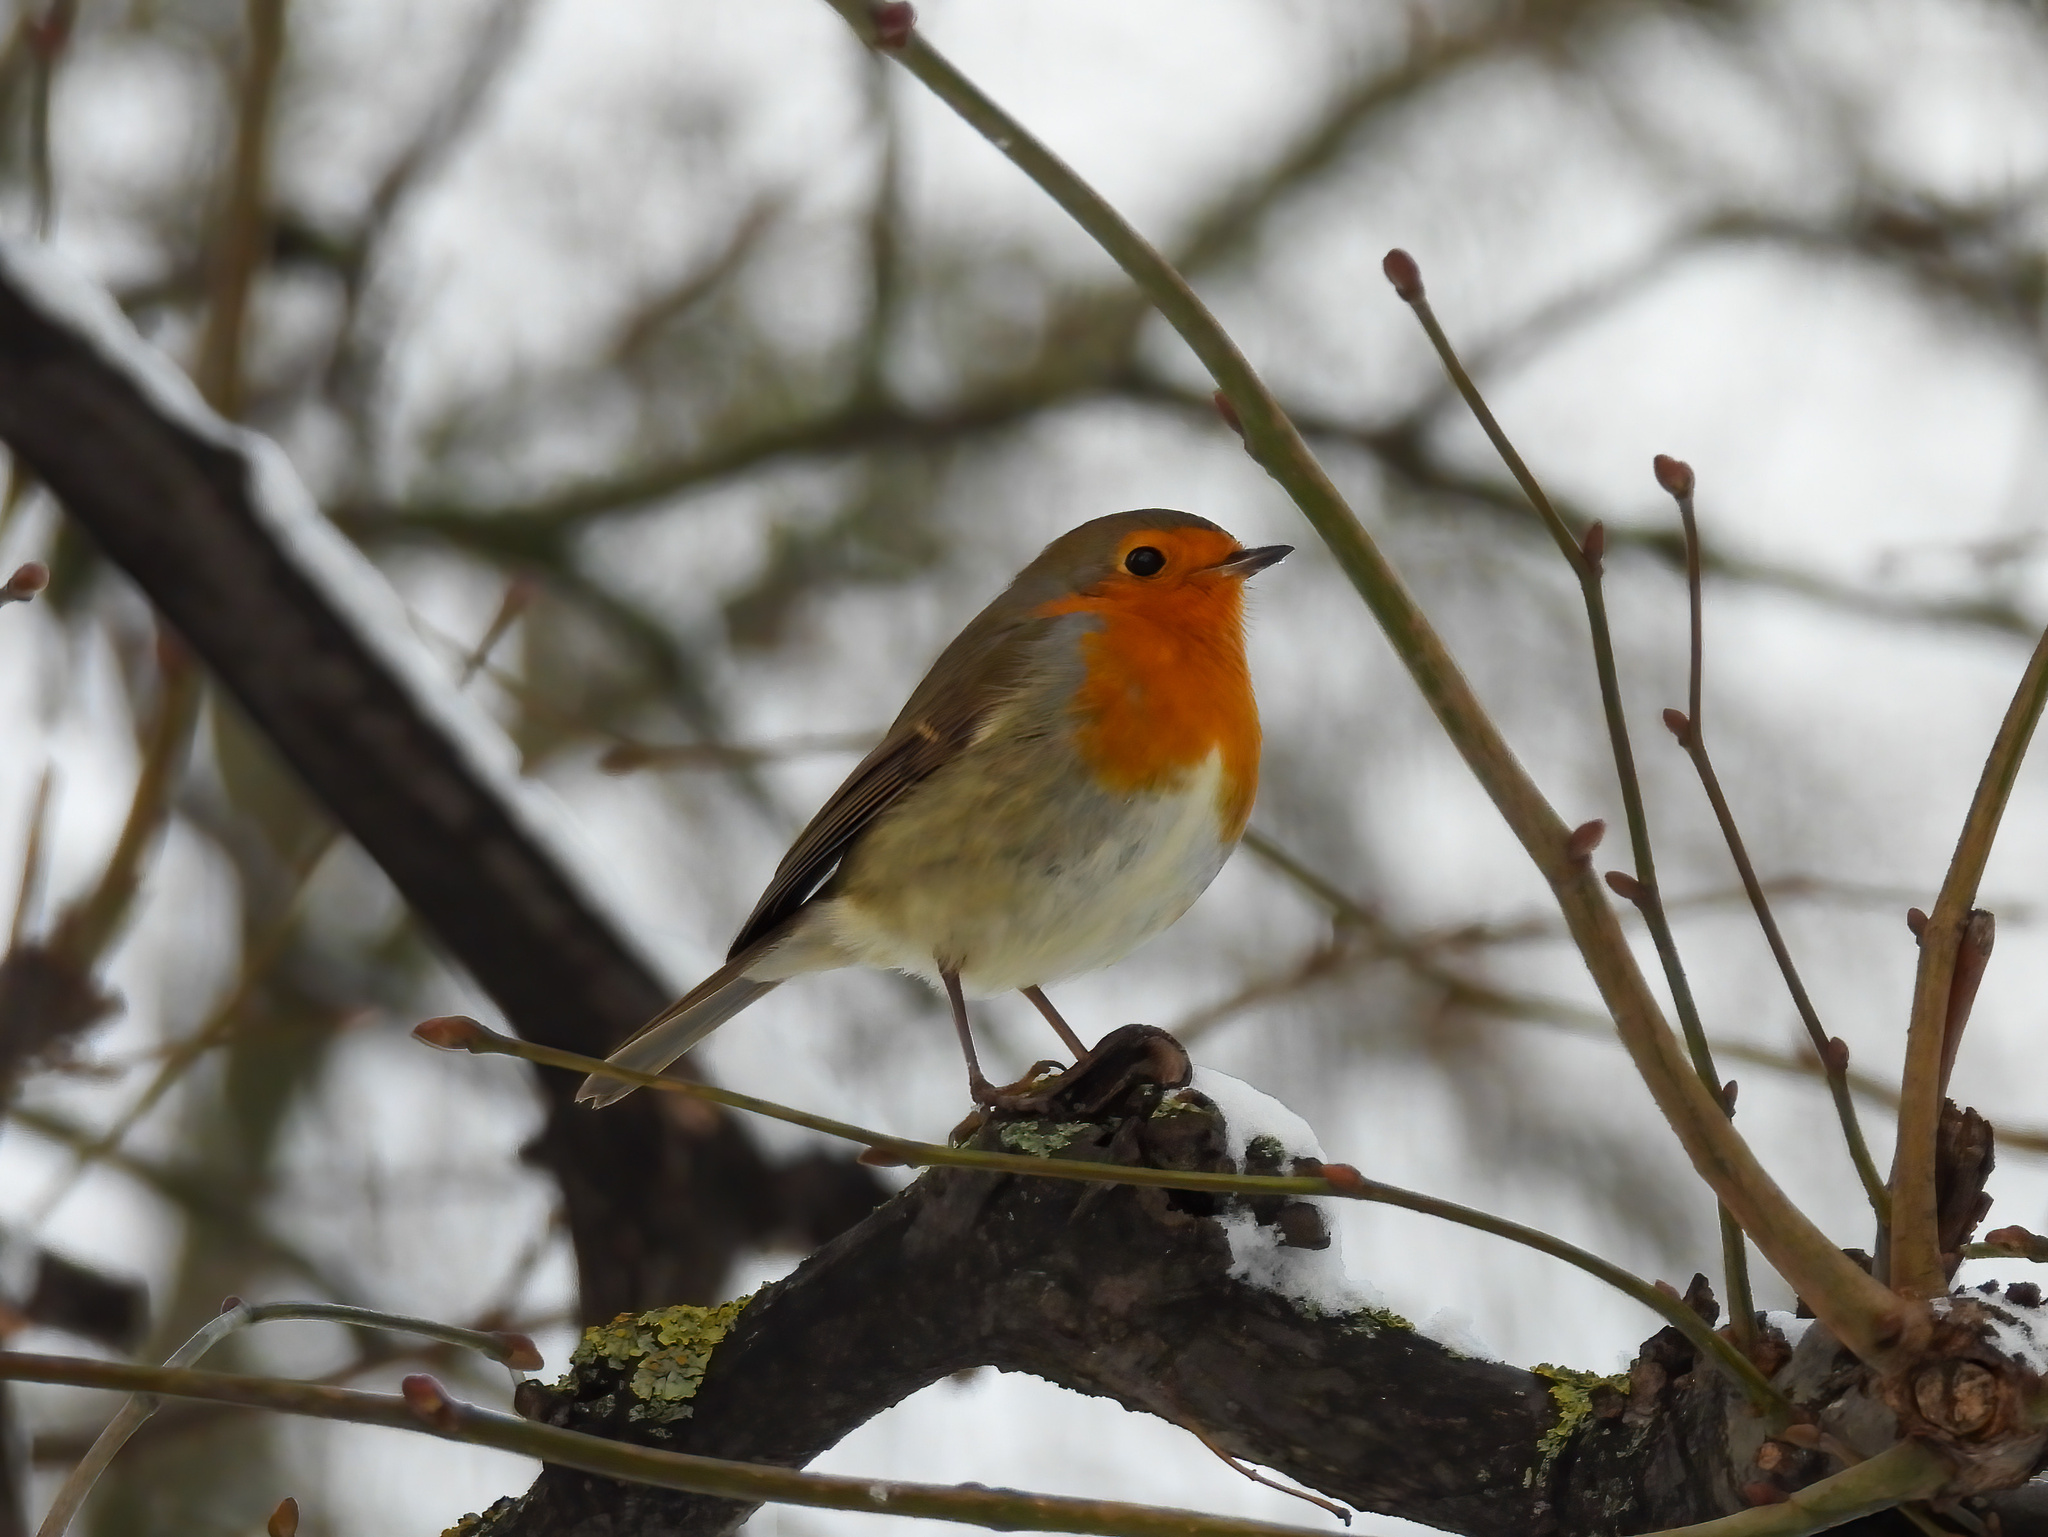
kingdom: Animalia
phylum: Chordata
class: Aves
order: Passeriformes
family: Muscicapidae
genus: Erithacus
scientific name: Erithacus rubecula
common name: European robin
